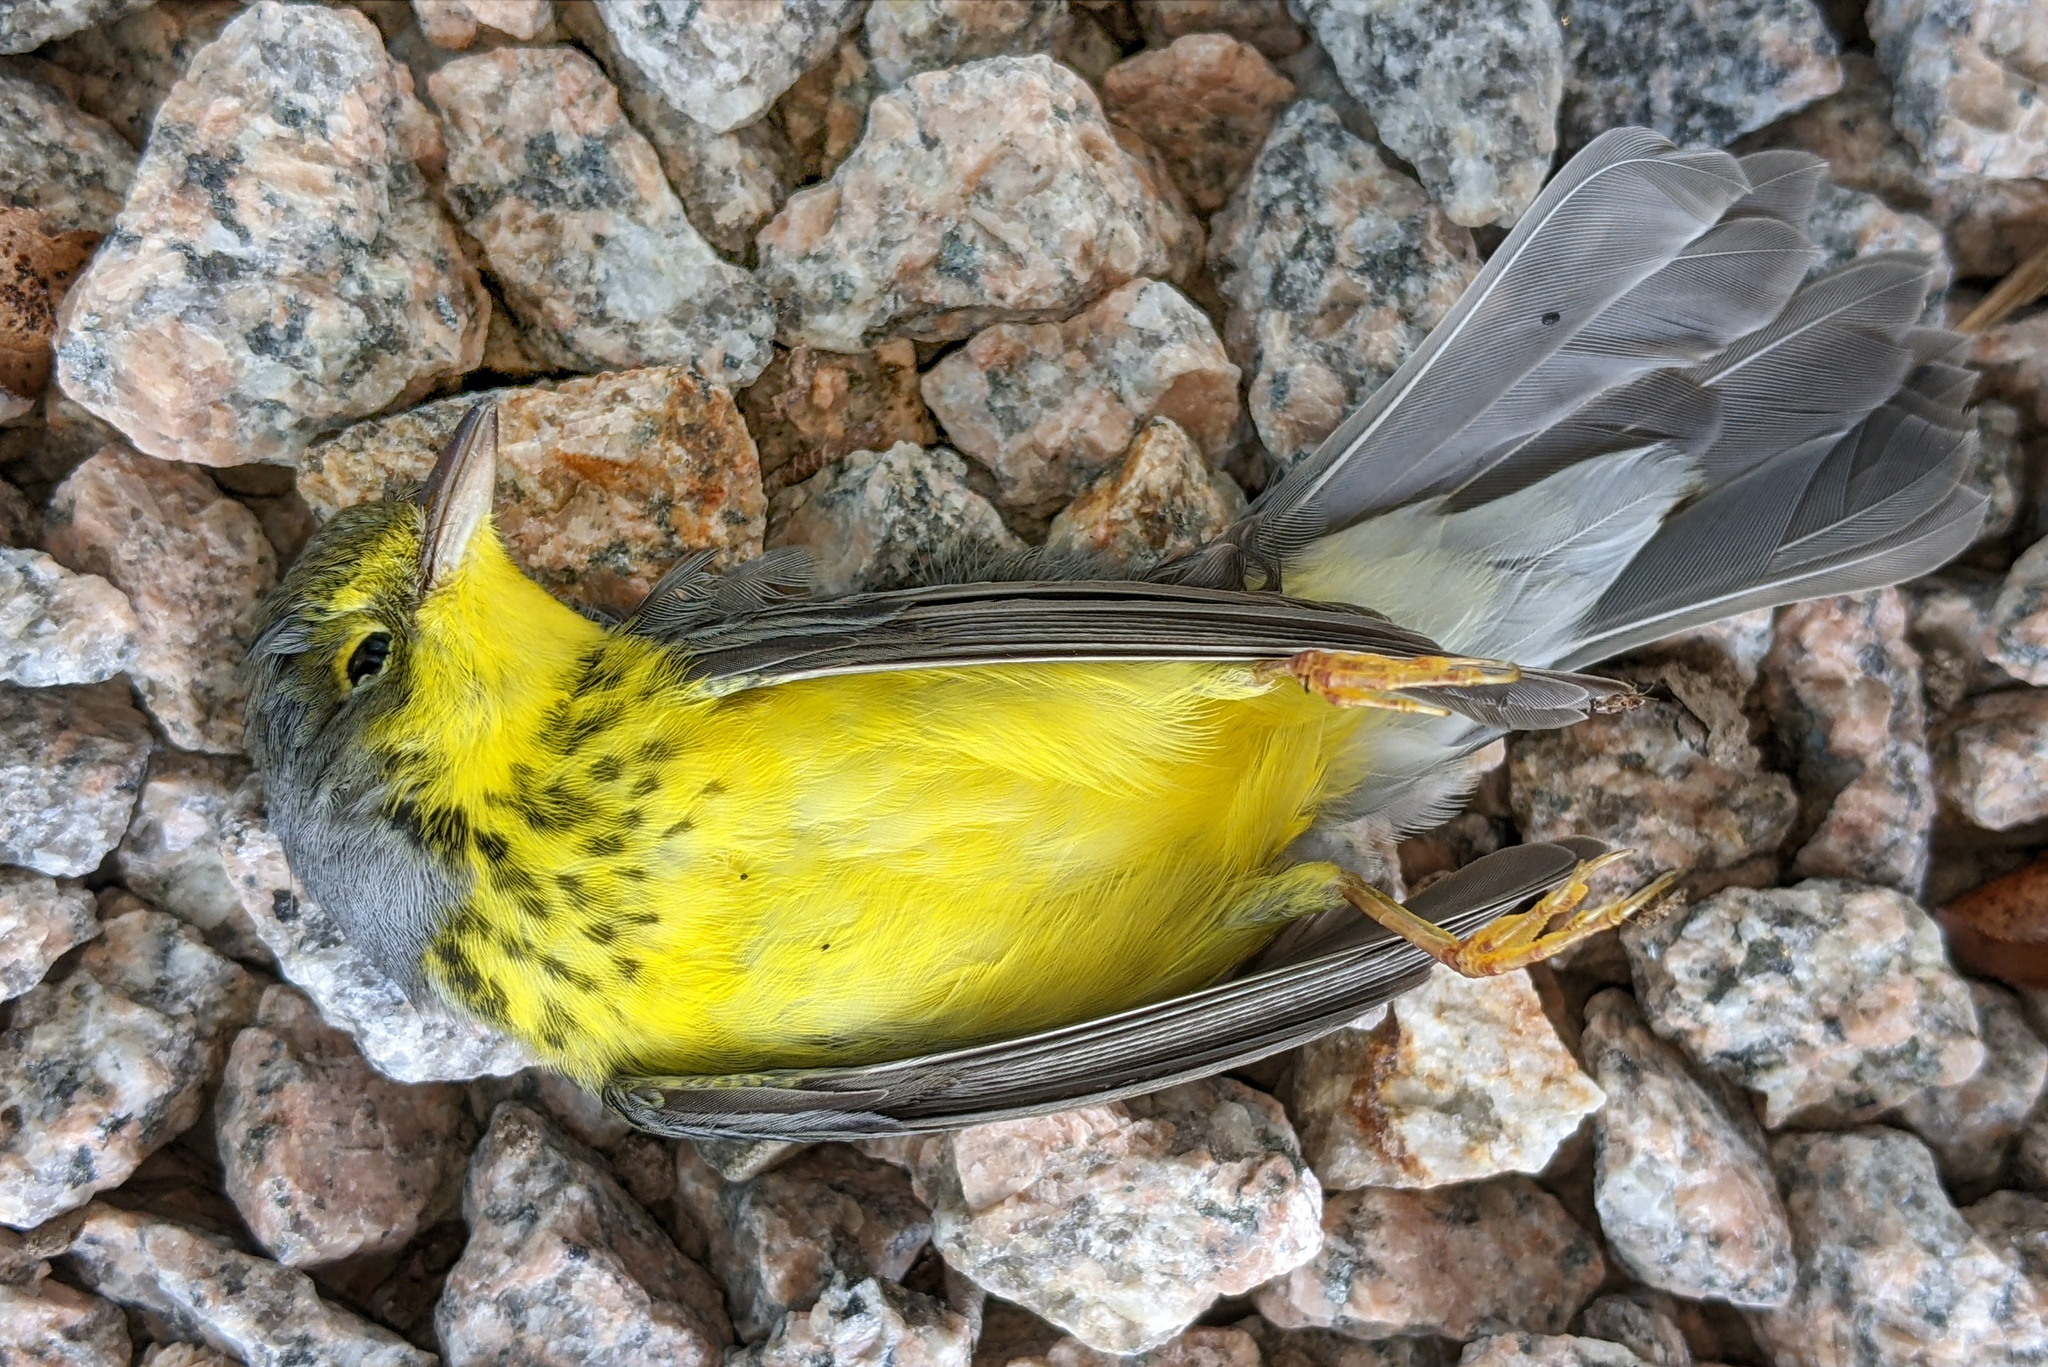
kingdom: Animalia
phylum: Chordata
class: Aves
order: Passeriformes
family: Parulidae
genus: Cardellina
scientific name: Cardellina canadensis
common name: Canada warbler
